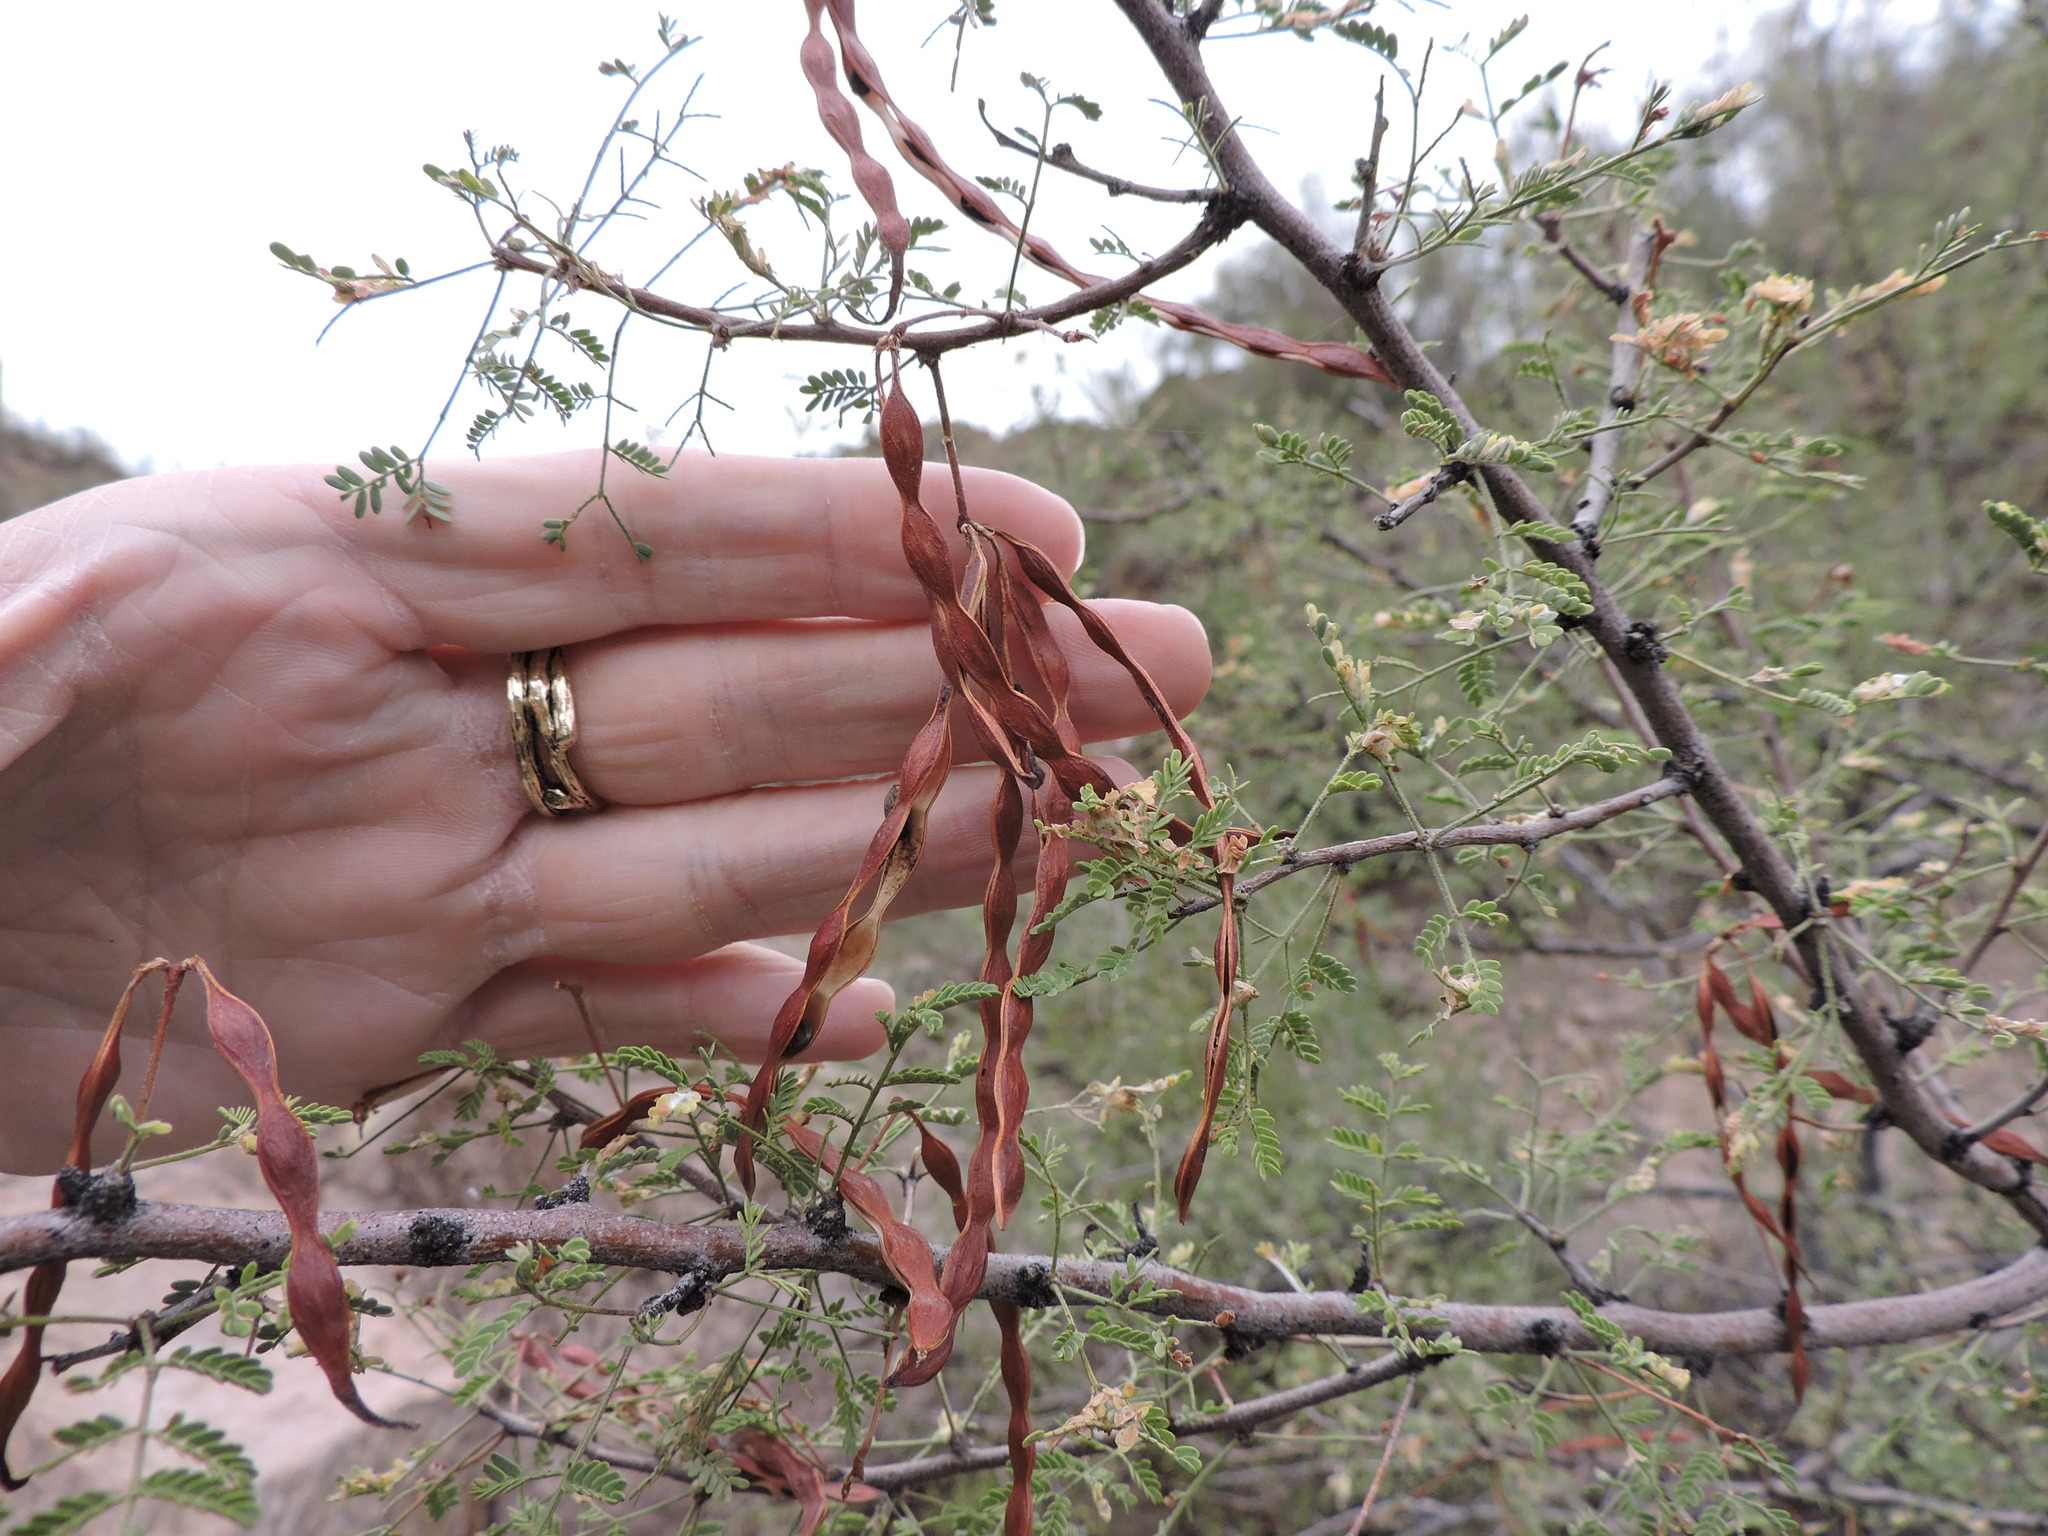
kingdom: Plantae
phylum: Tracheophyta
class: Magnoliopsida
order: Fabales
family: Fabaceae
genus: Vachellia
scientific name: Vachellia constricta
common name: Mescat acacia
